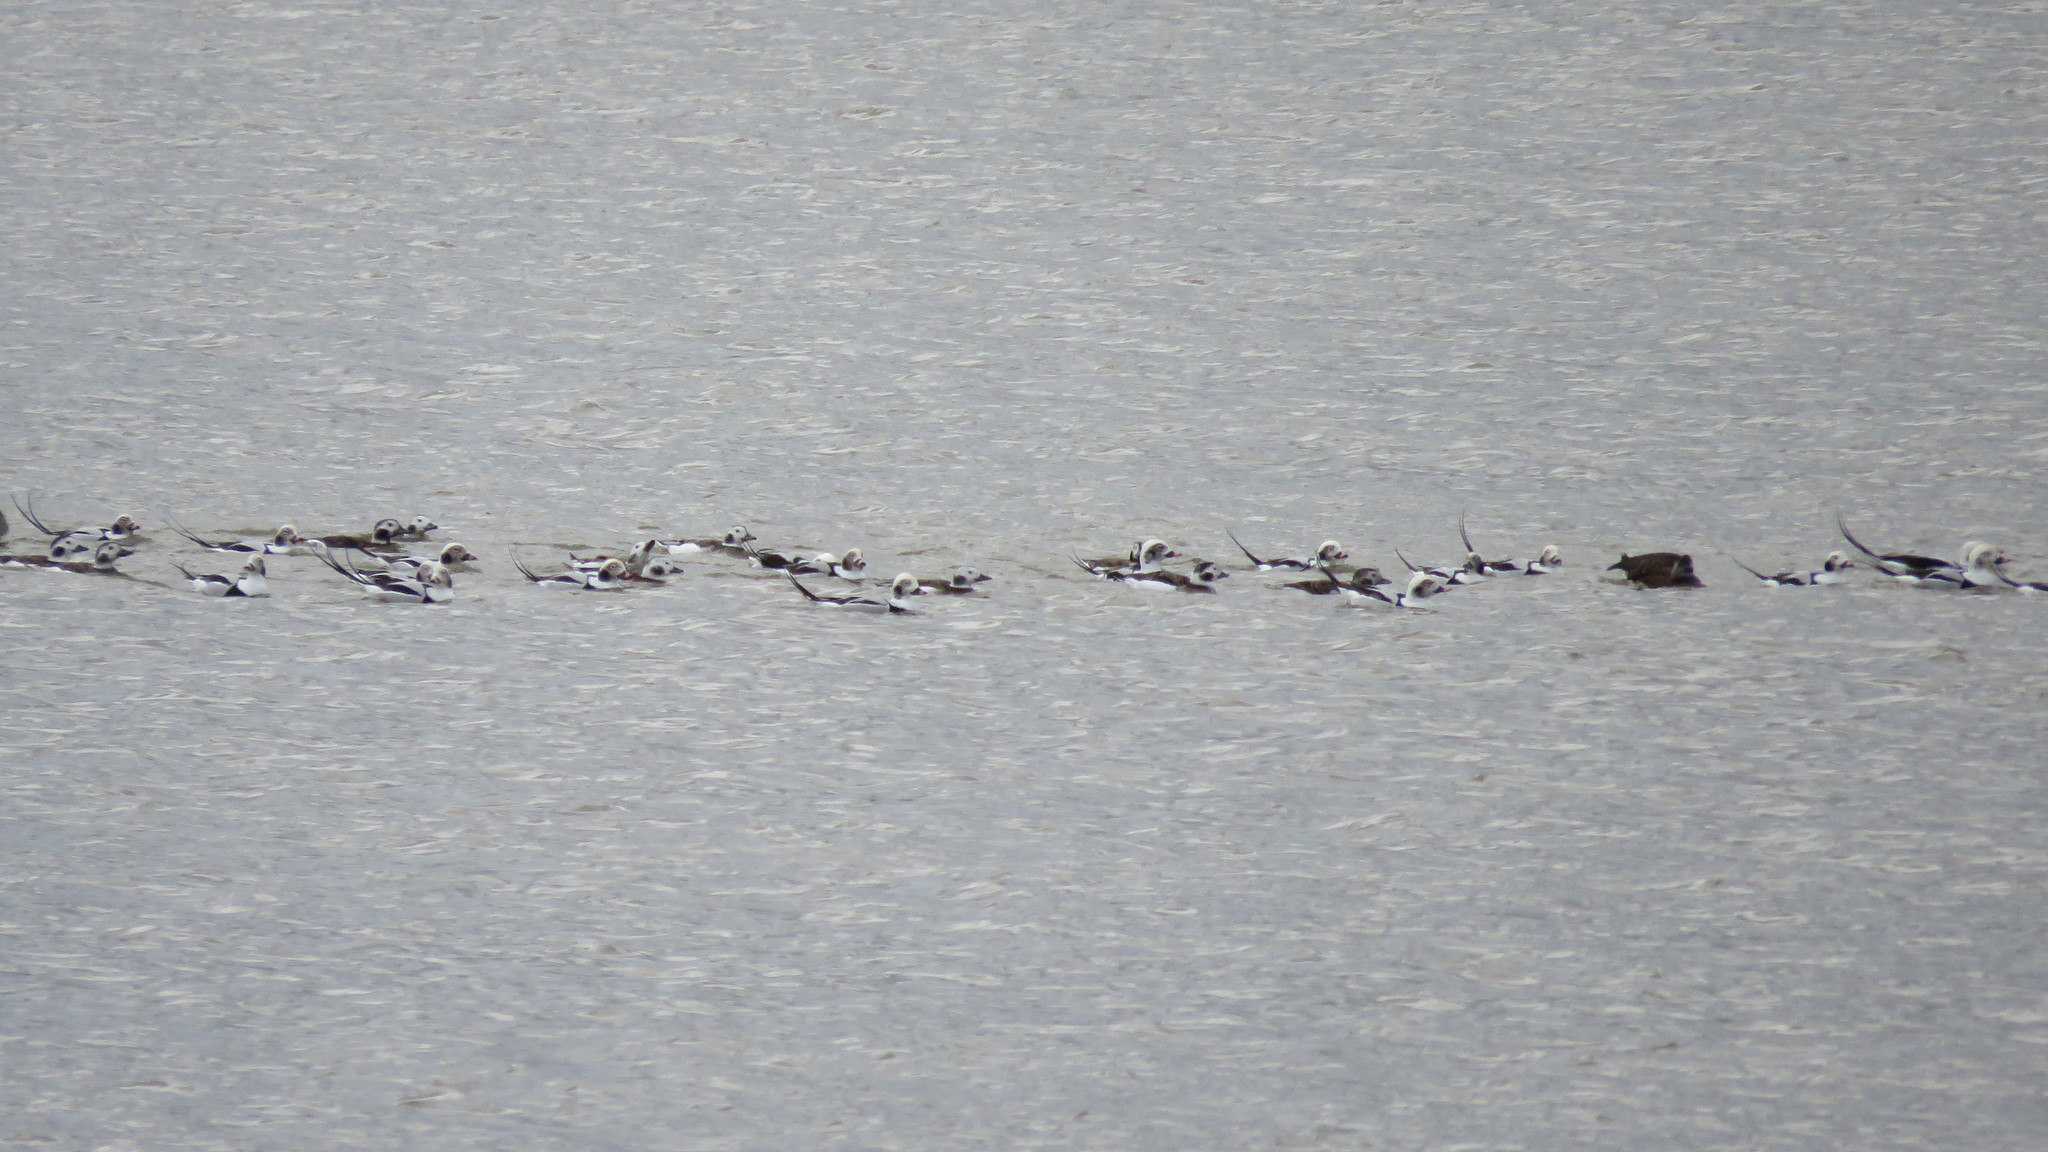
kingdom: Animalia
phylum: Chordata
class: Aves
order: Anseriformes
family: Anatidae
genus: Clangula
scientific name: Clangula hyemalis
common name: Long-tailed duck
